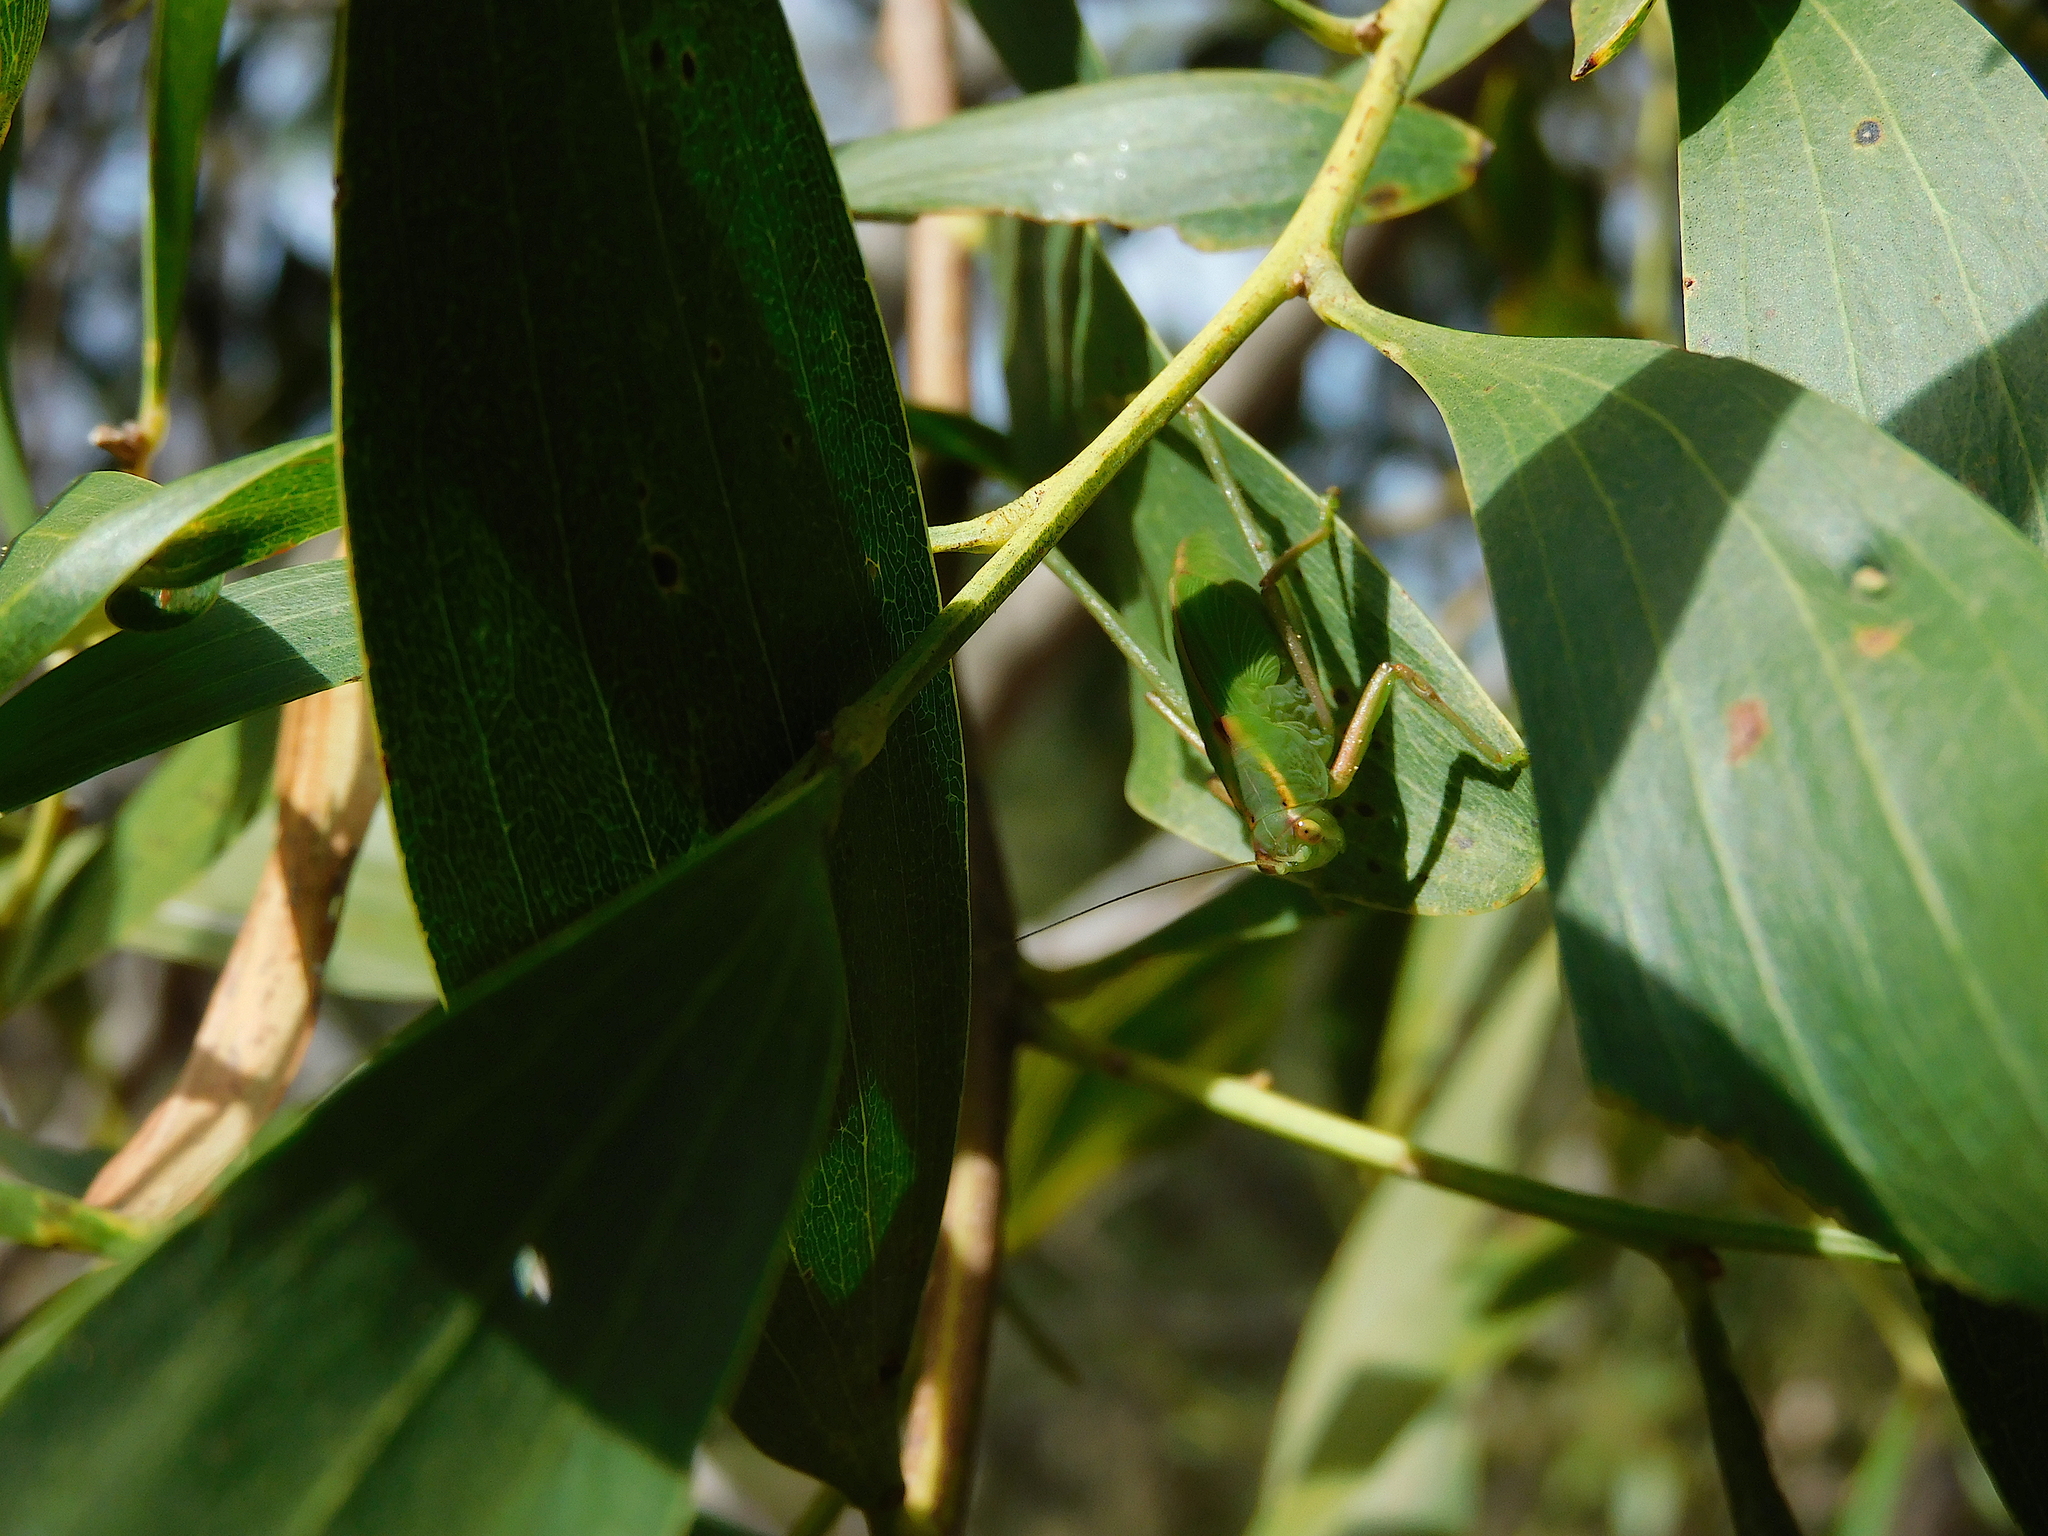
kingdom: Animalia
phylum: Arthropoda
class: Insecta
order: Orthoptera
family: Tettigoniidae
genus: Caedicia
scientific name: Caedicia simplex
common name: Common garden katydid
